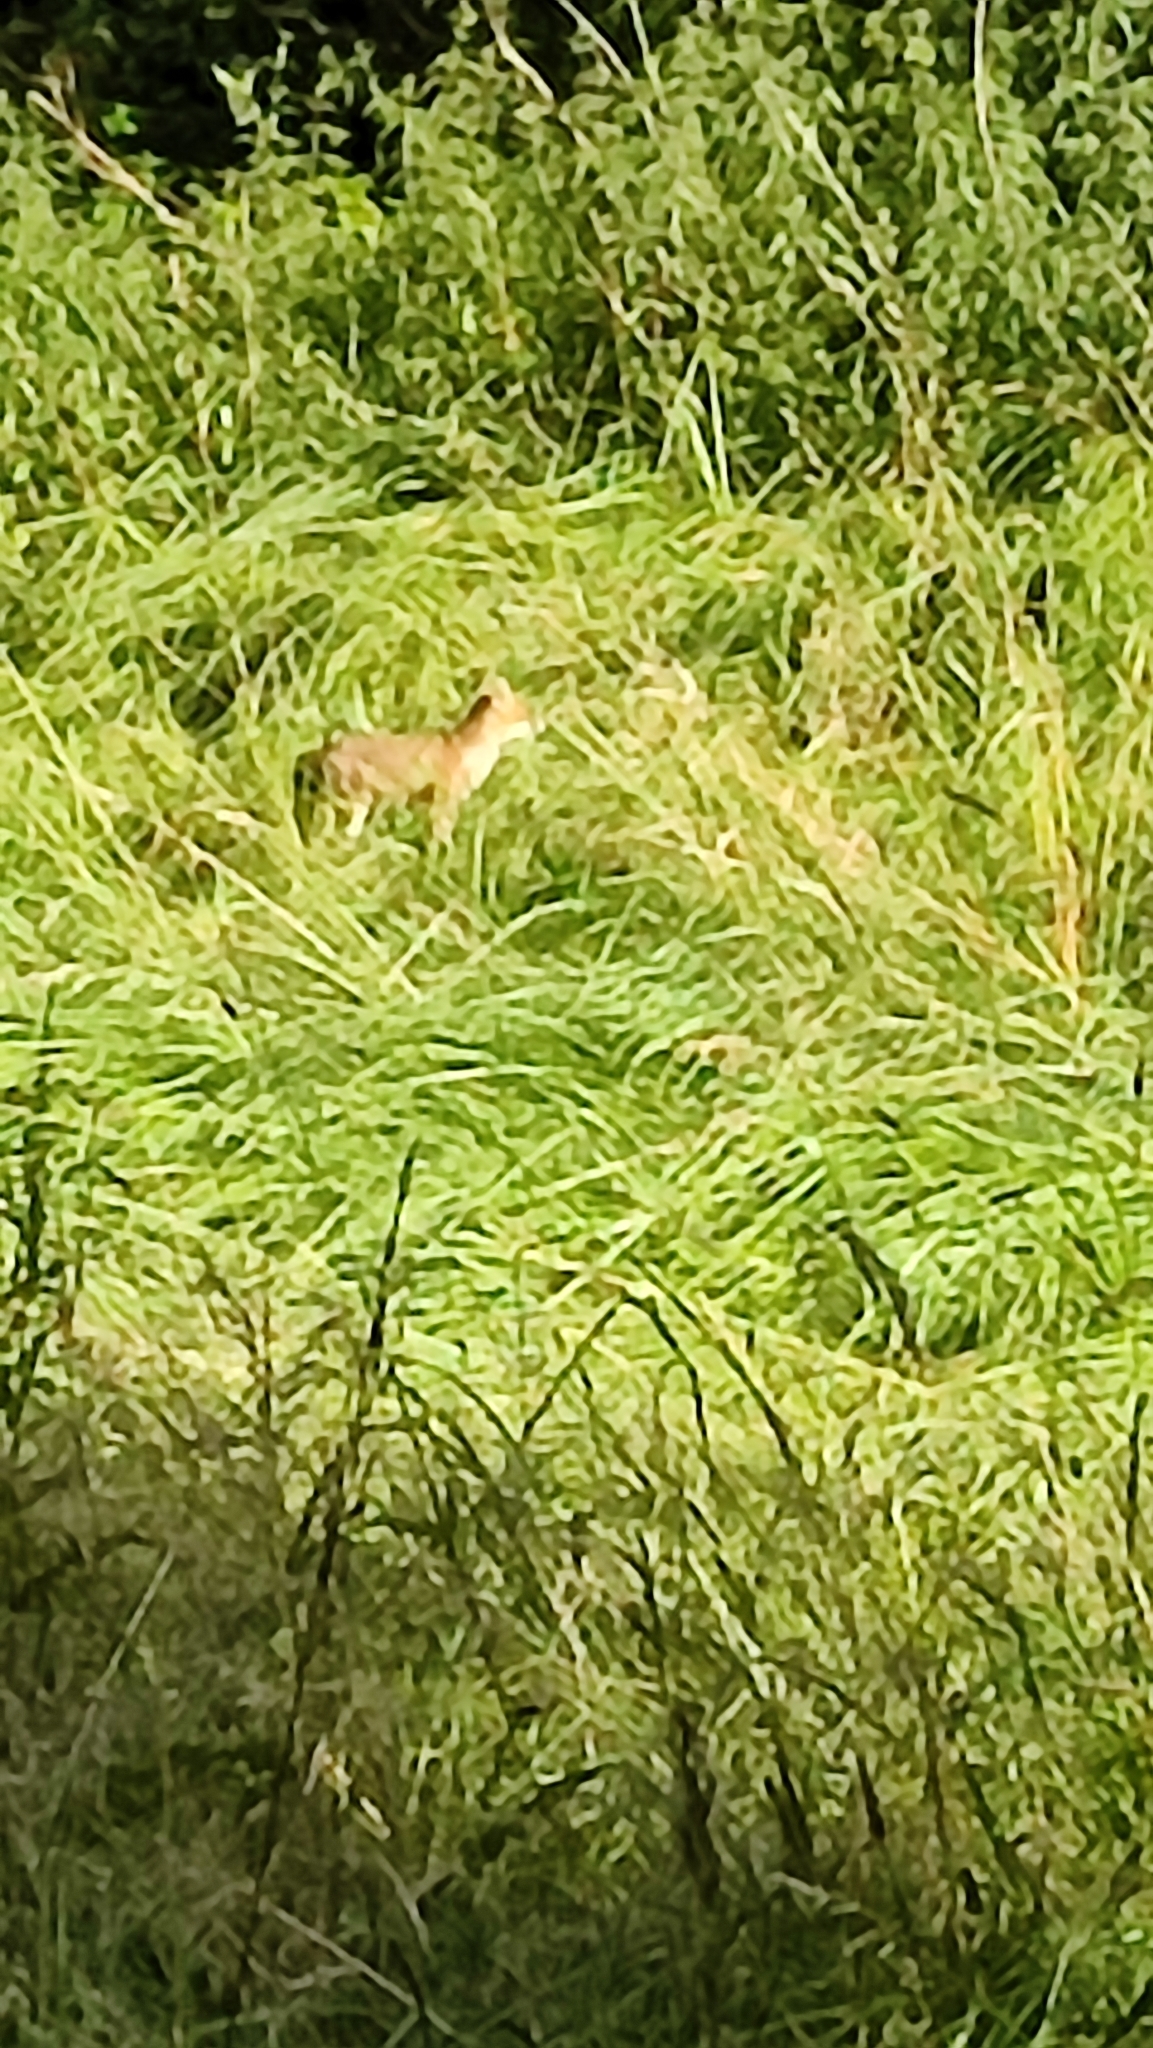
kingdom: Animalia
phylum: Chordata
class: Mammalia
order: Carnivora
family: Canidae
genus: Vulpes
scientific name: Vulpes vulpes
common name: Red fox
